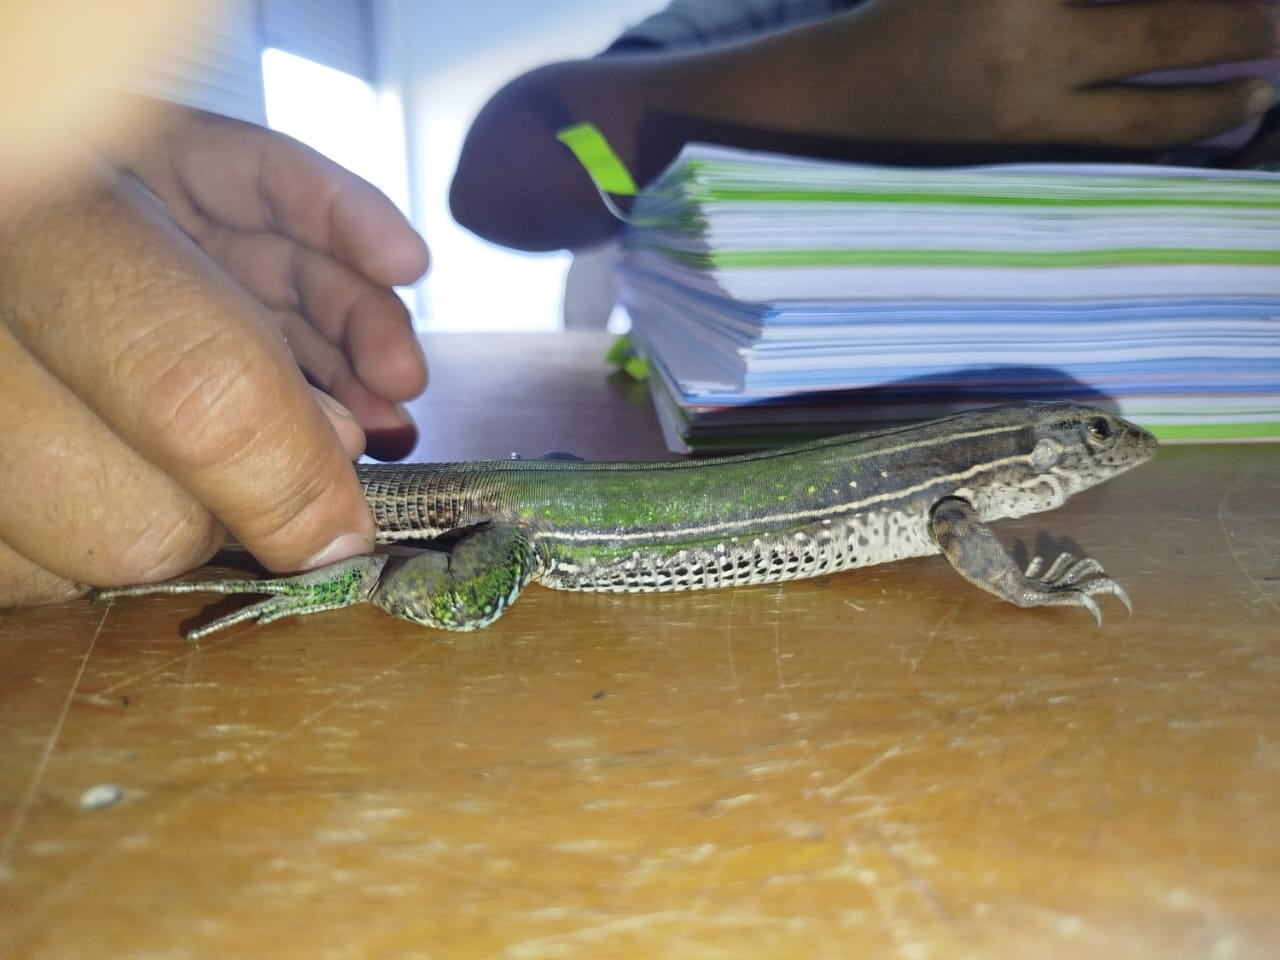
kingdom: Animalia
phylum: Chordata
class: Squamata
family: Teiidae
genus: Ameiva
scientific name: Ameiva ameiva
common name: Giant ameiva
